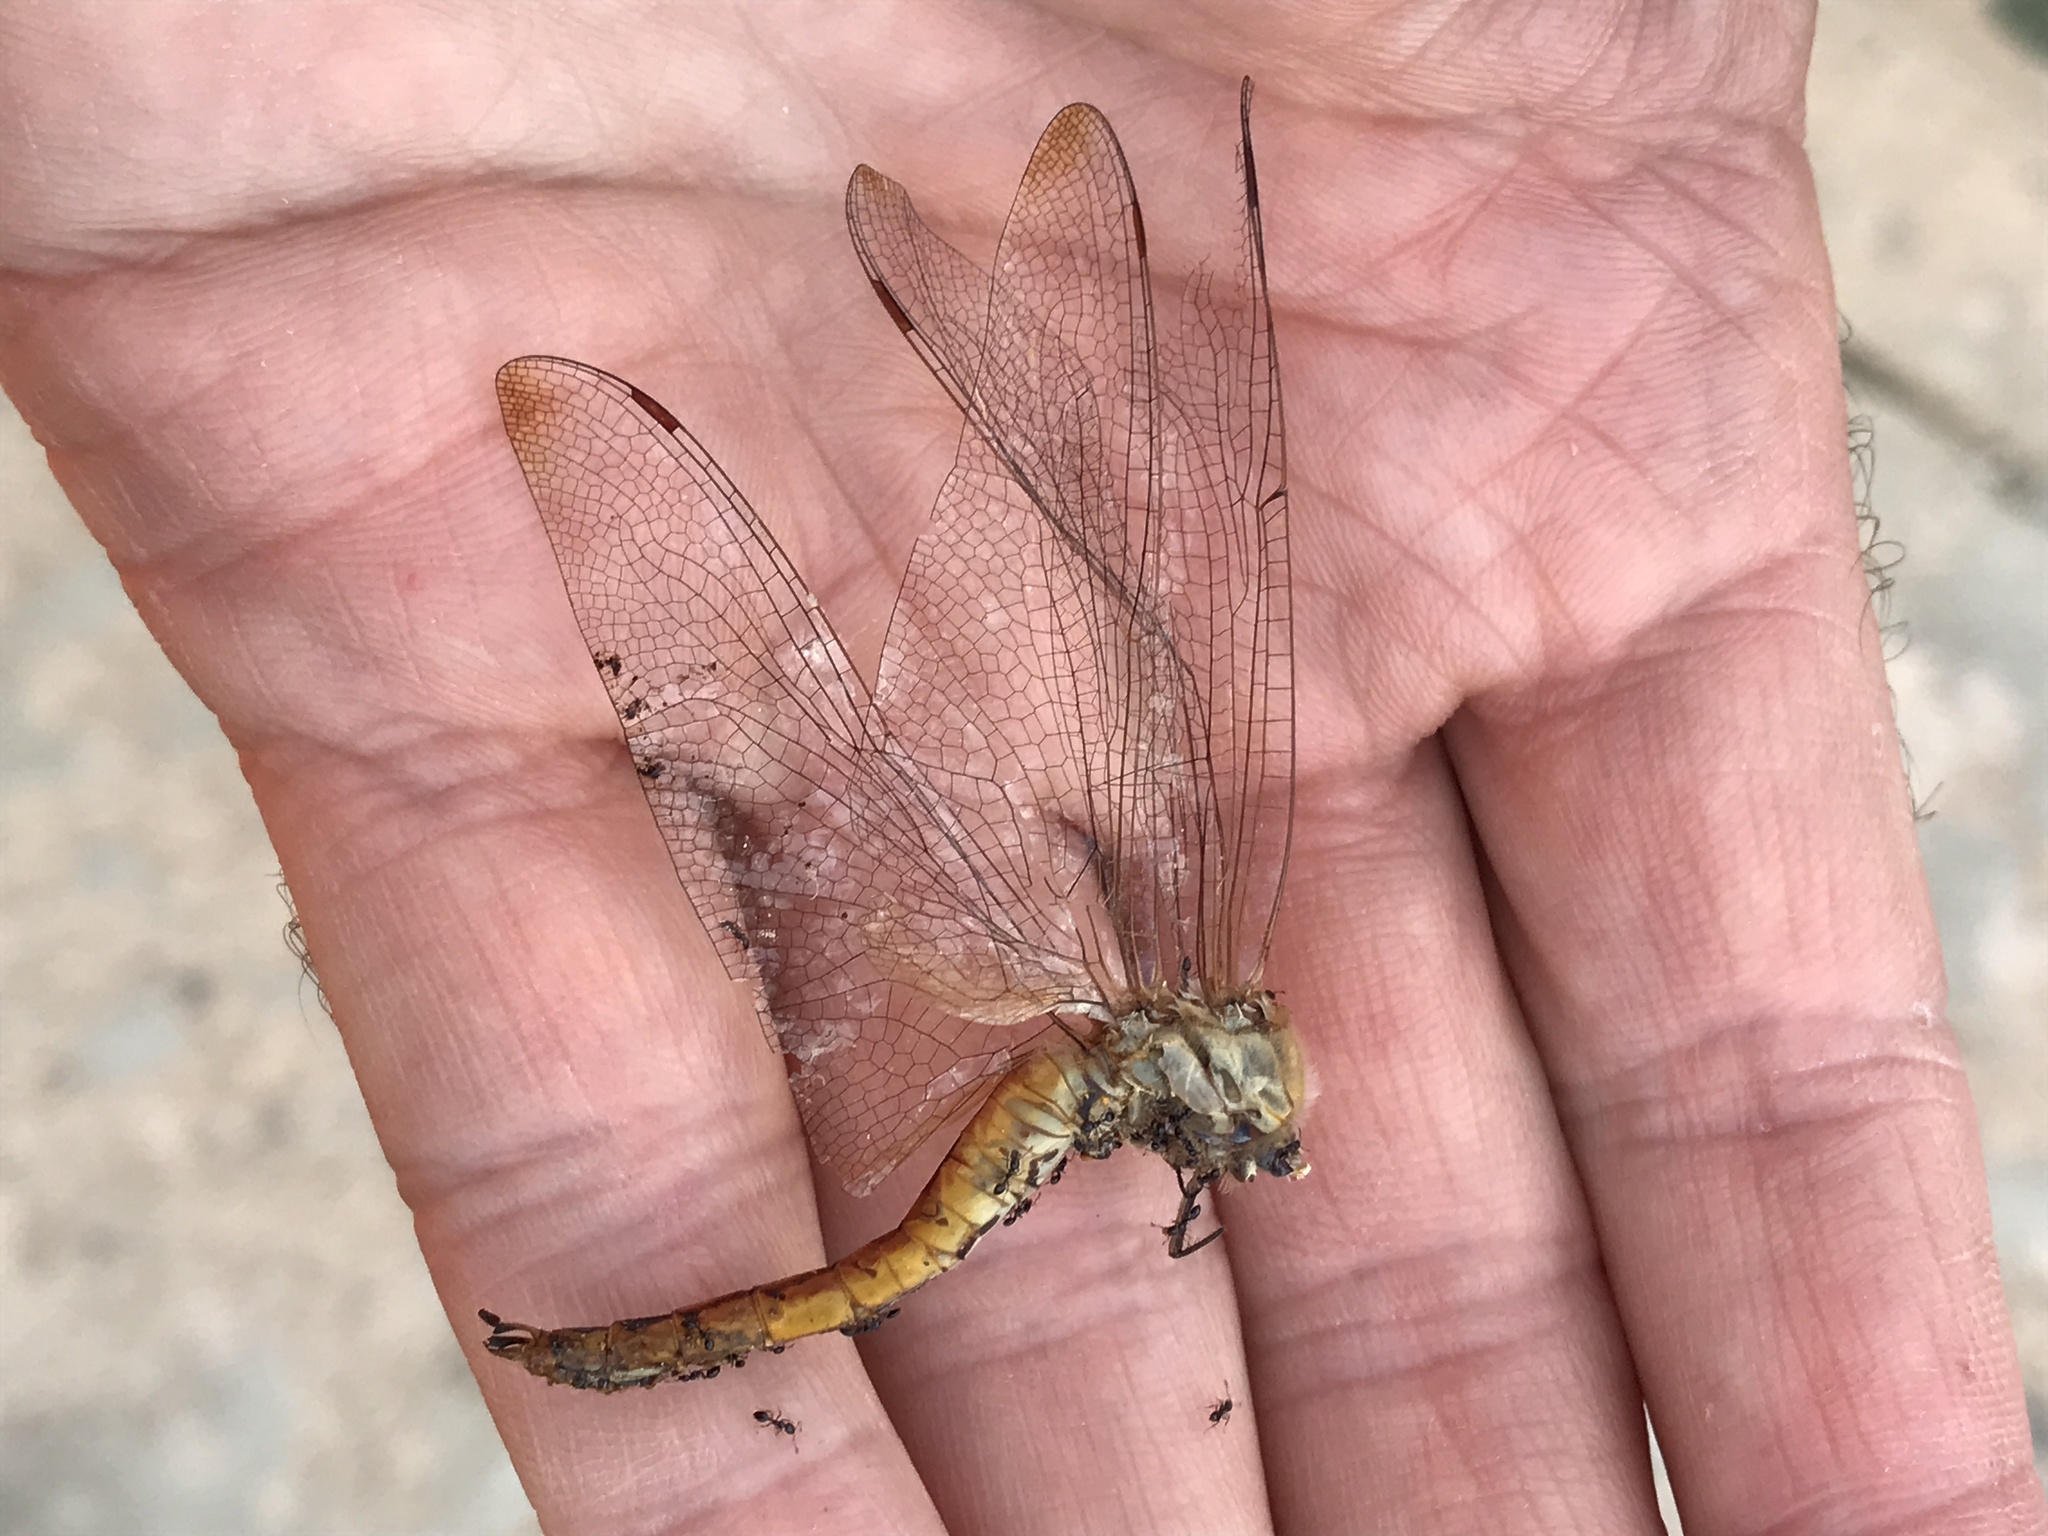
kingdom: Animalia
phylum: Arthropoda
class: Insecta
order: Odonata
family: Libellulidae
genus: Pantala
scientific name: Pantala flavescens
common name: Wandering glider
